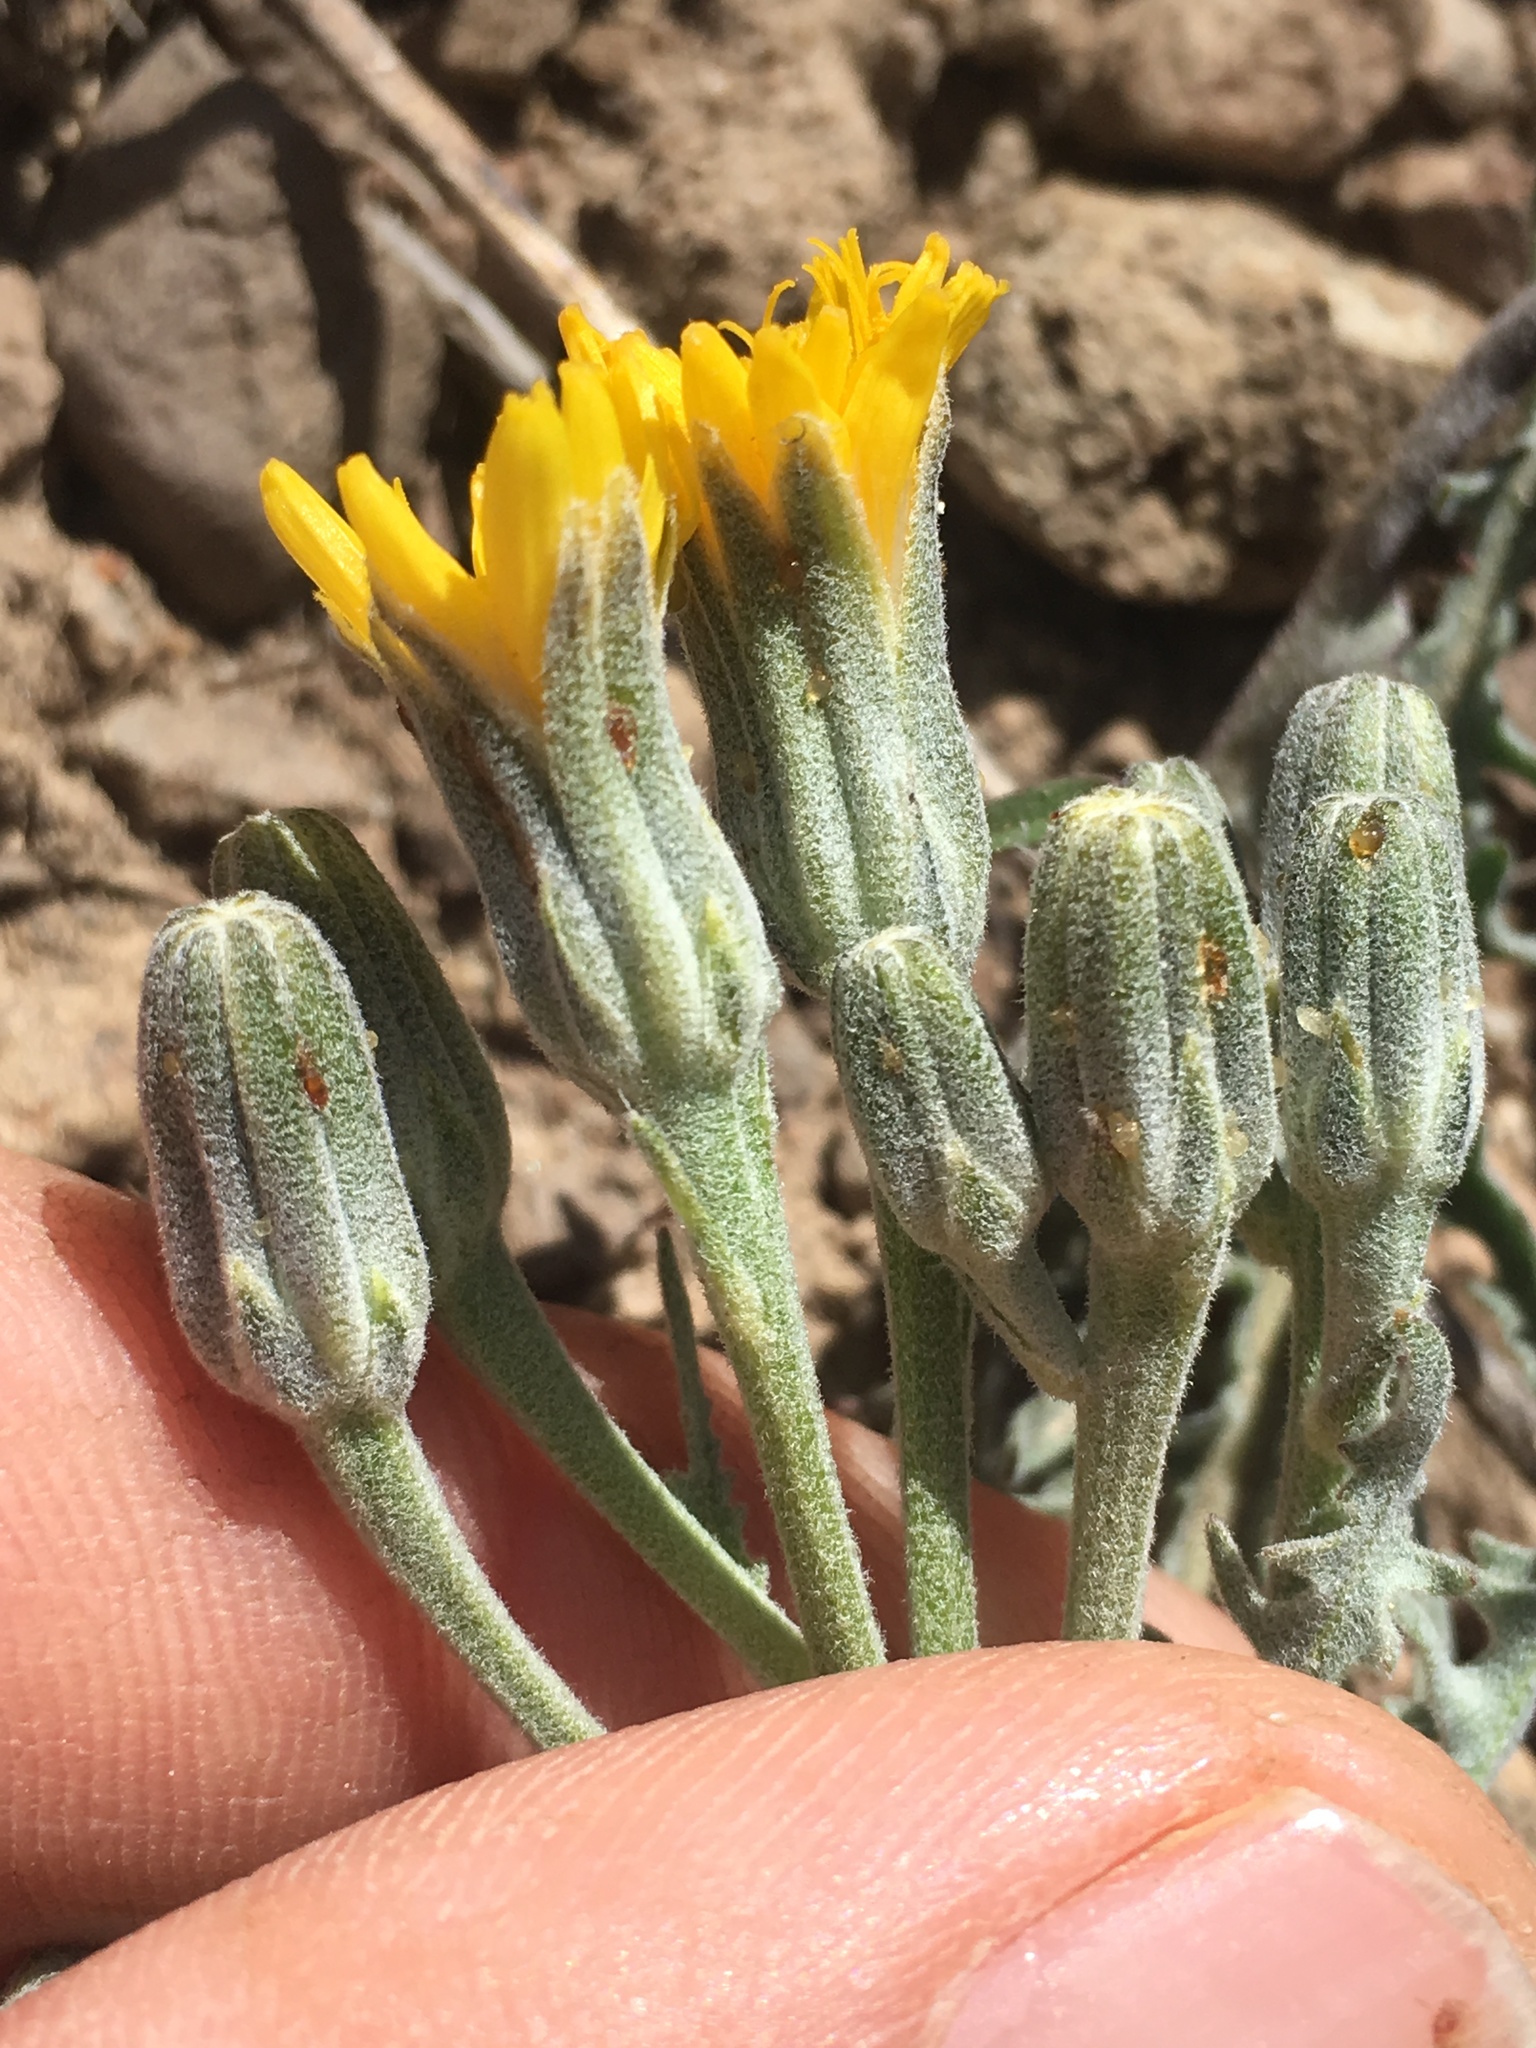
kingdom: Plantae
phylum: Tracheophyta
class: Magnoliopsida
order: Asterales
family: Asteraceae
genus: Crepis
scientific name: Crepis occidentalis
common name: Gray hawk's-beard
